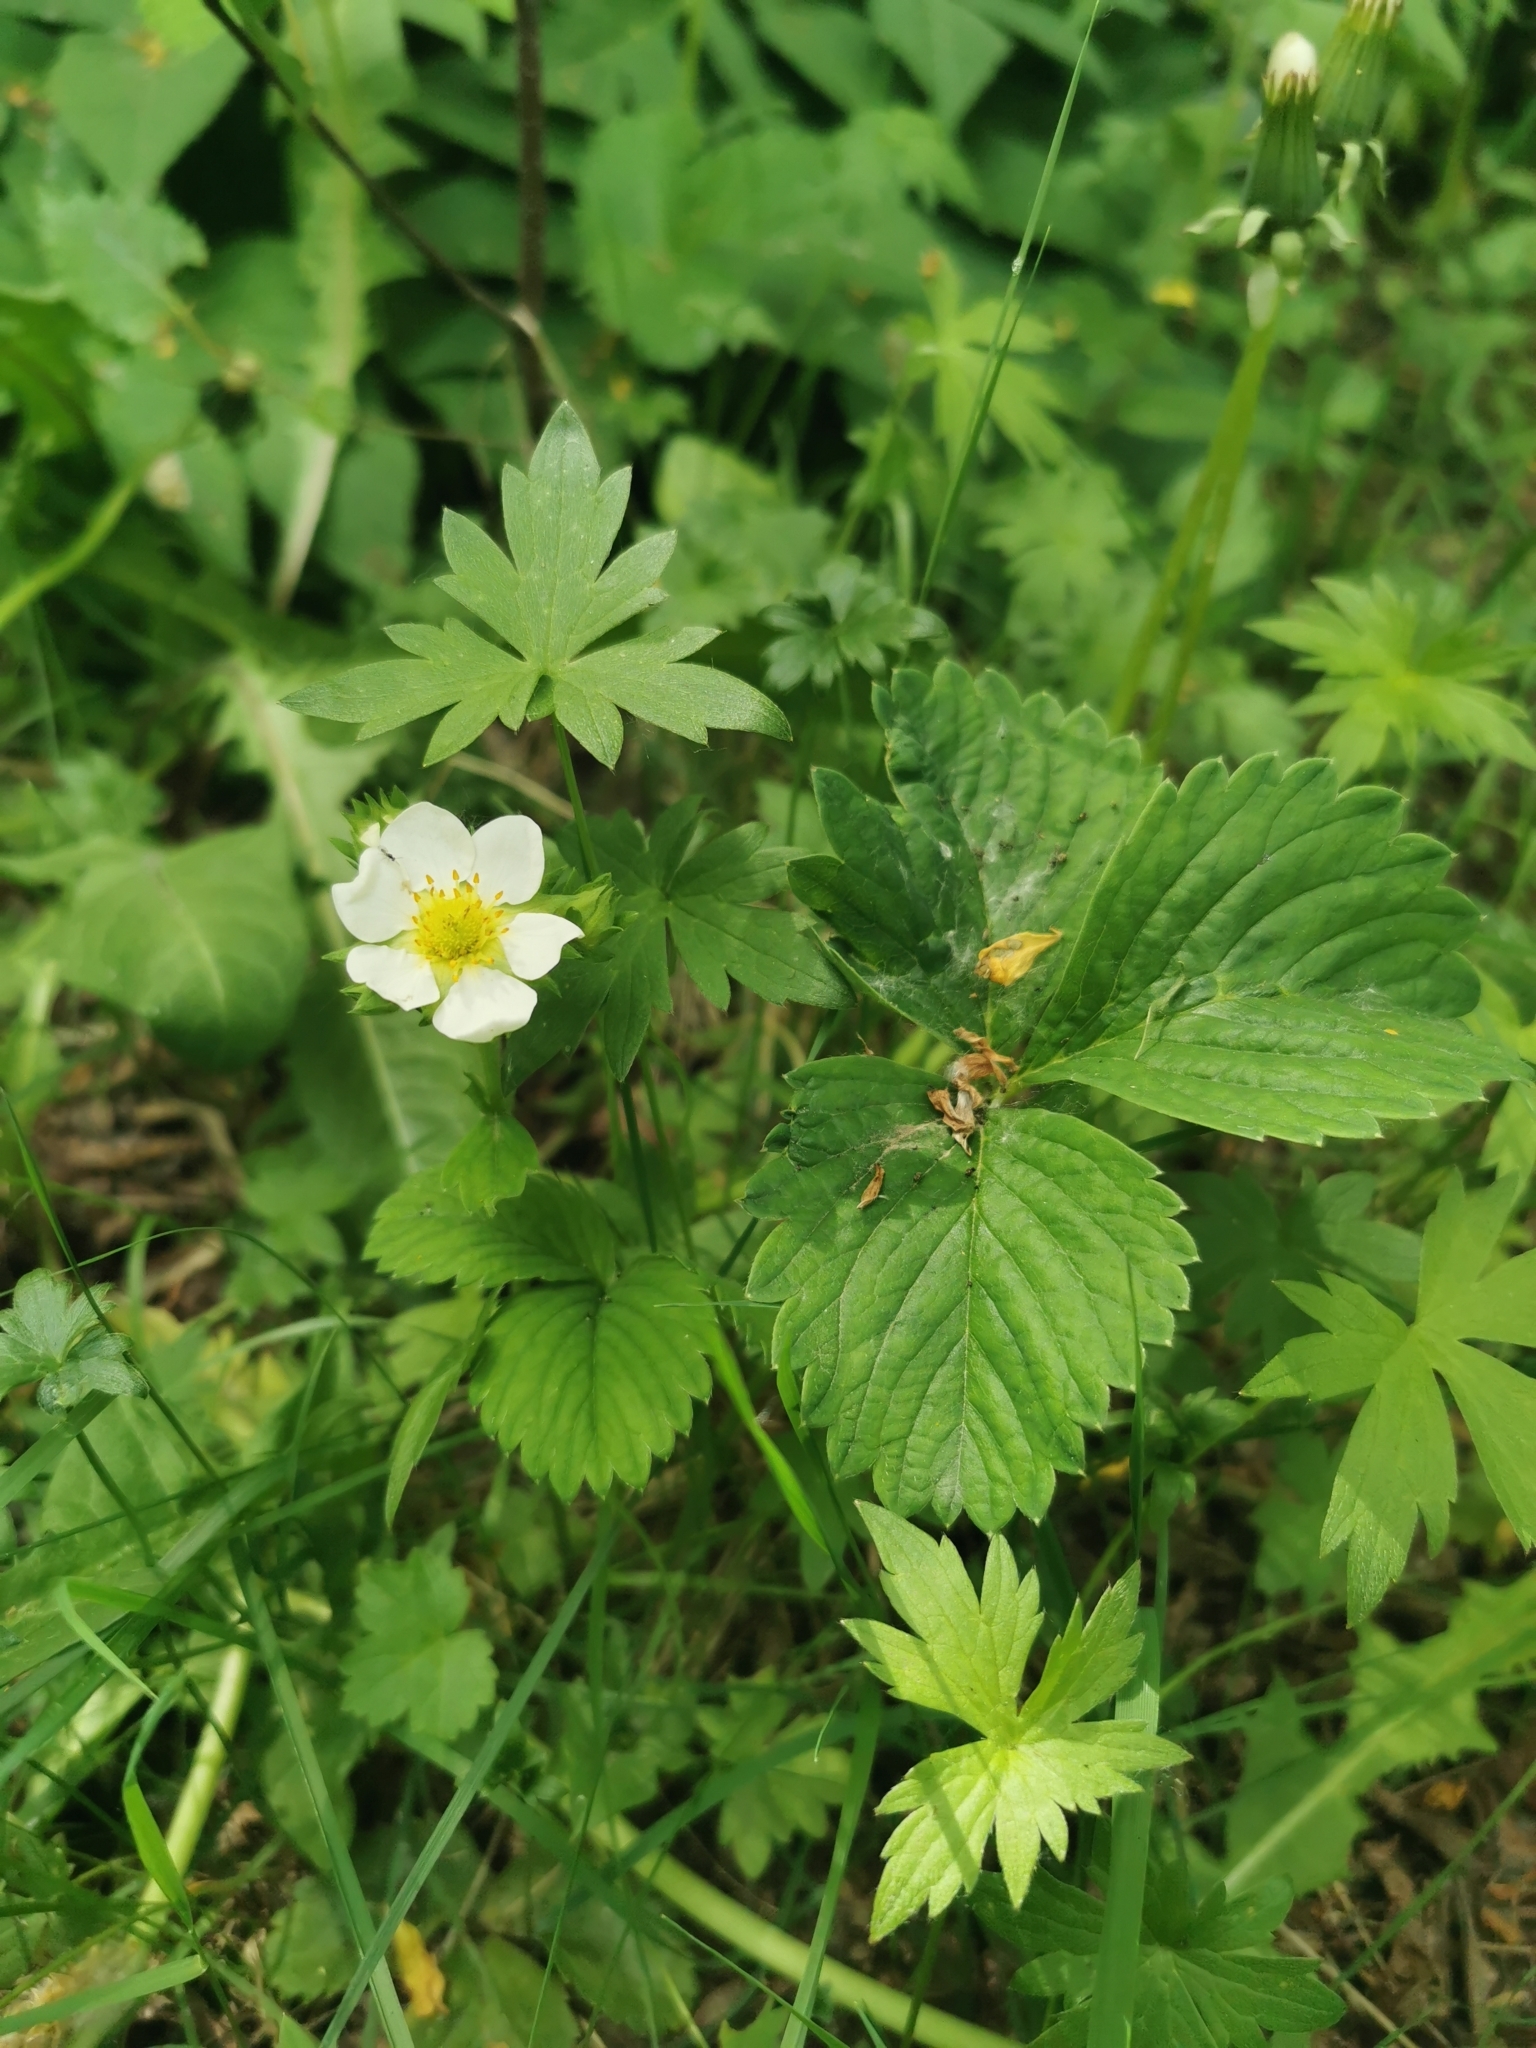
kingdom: Plantae
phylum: Tracheophyta
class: Magnoliopsida
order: Rosales
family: Rosaceae
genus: Fragaria
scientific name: Fragaria ananassa
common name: Garden strawberry
